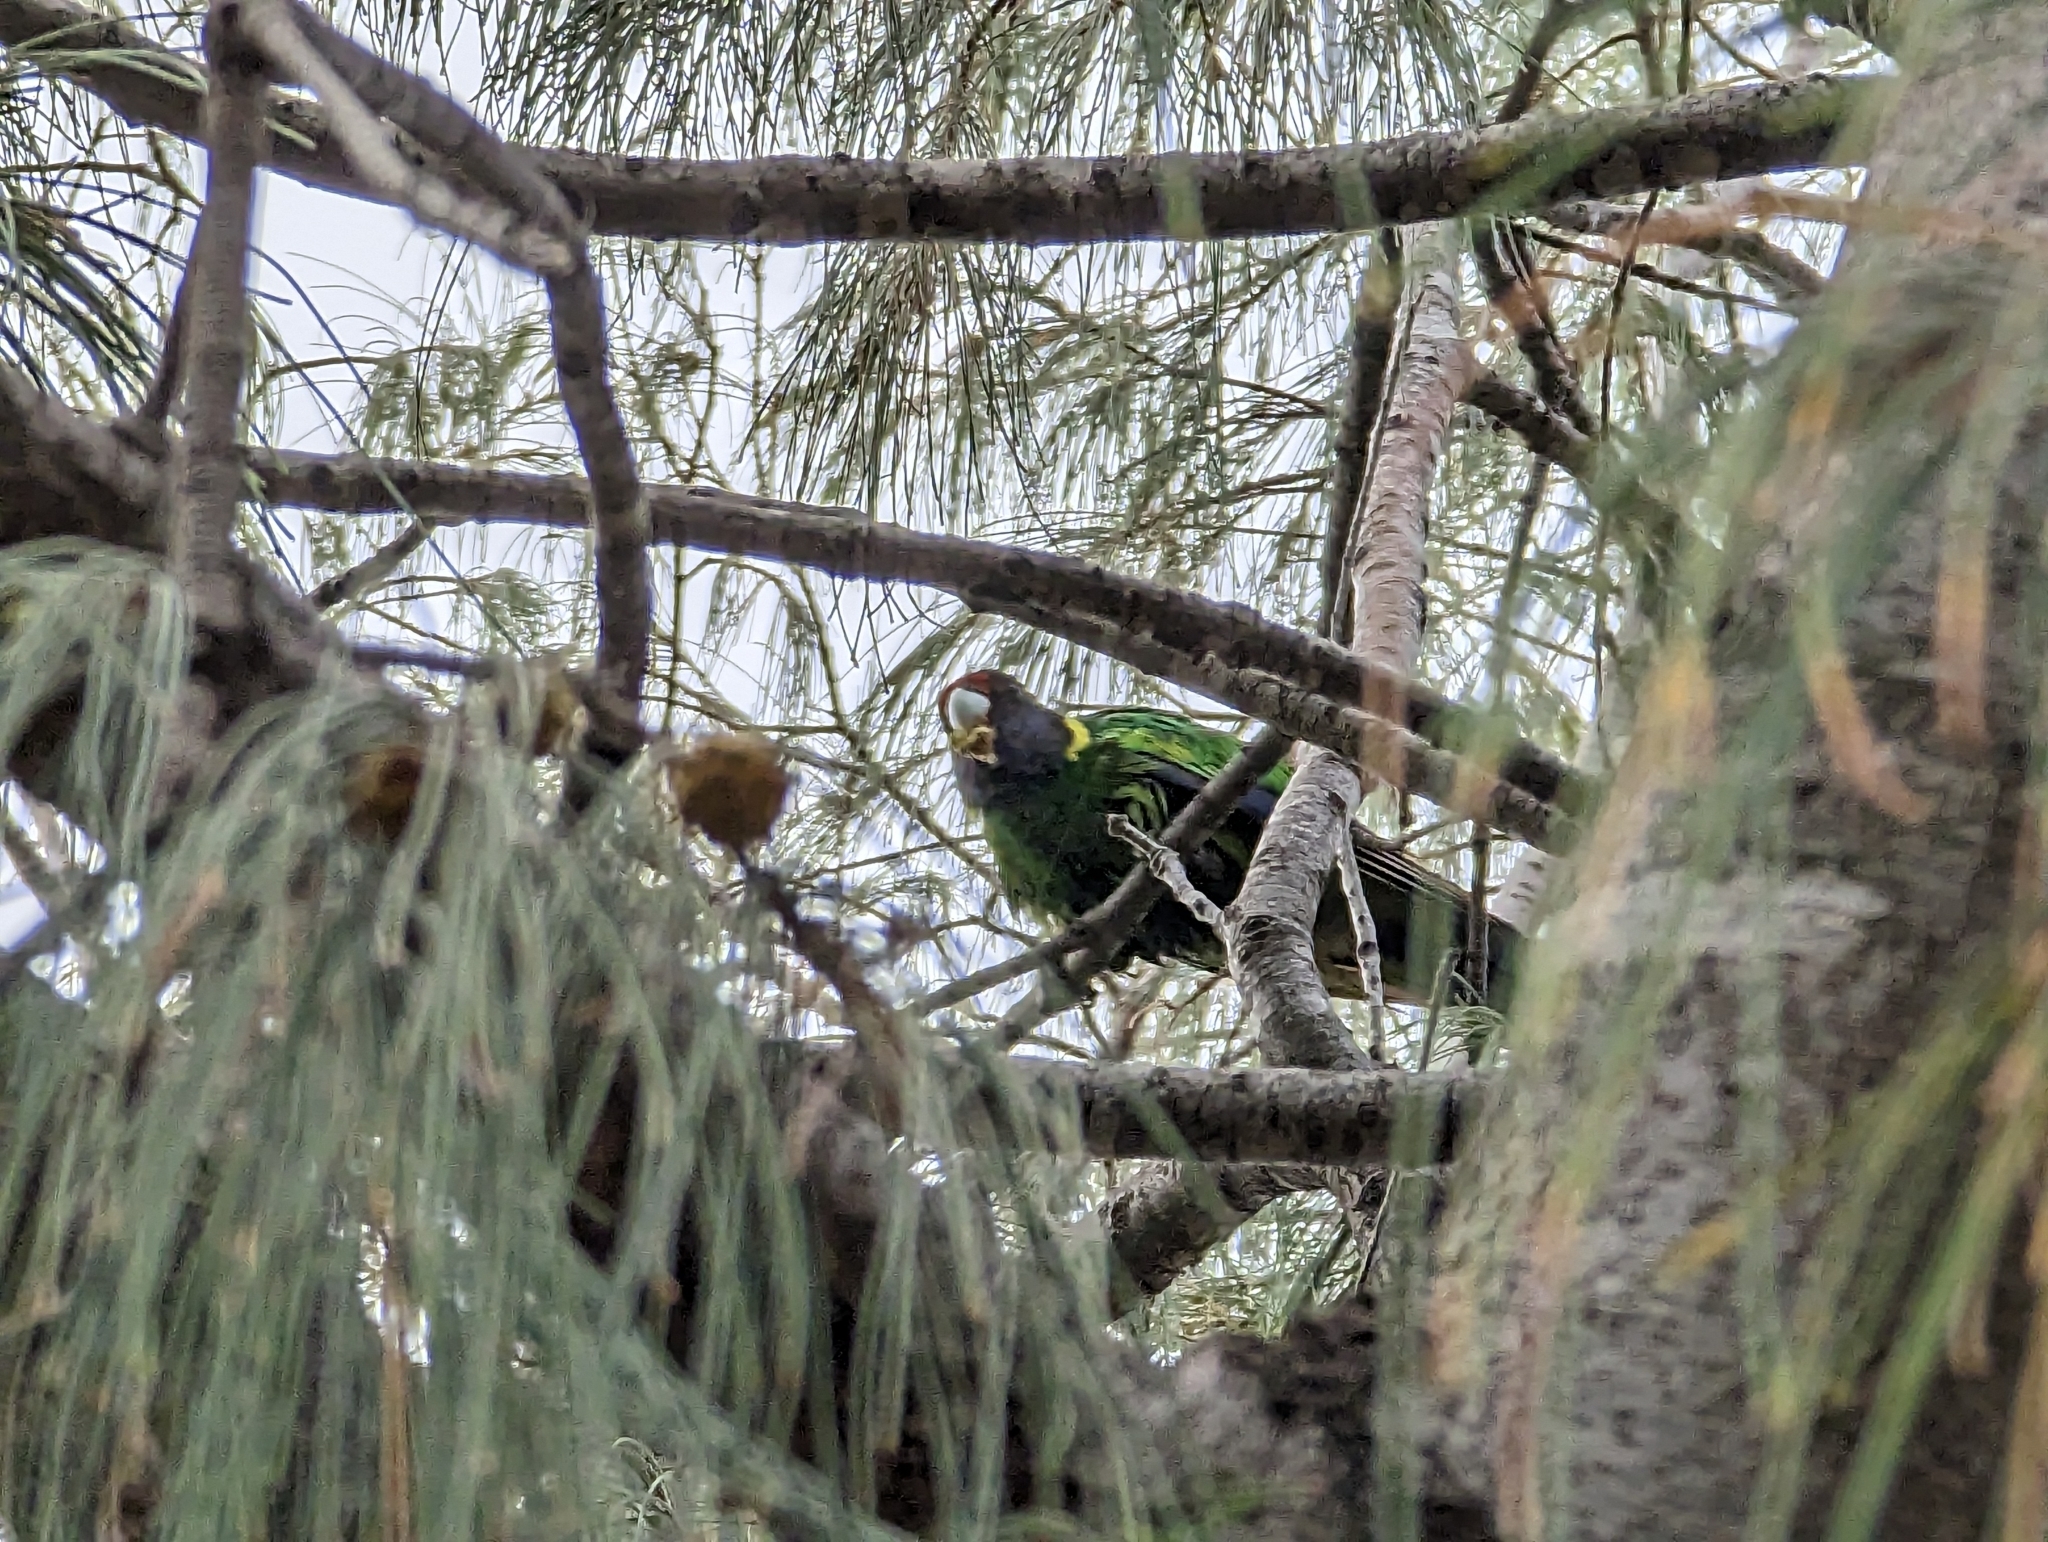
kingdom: Animalia
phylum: Chordata
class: Aves
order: Psittaciformes
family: Psittacidae
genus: Barnardius
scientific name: Barnardius zonarius
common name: Australian ringneck
